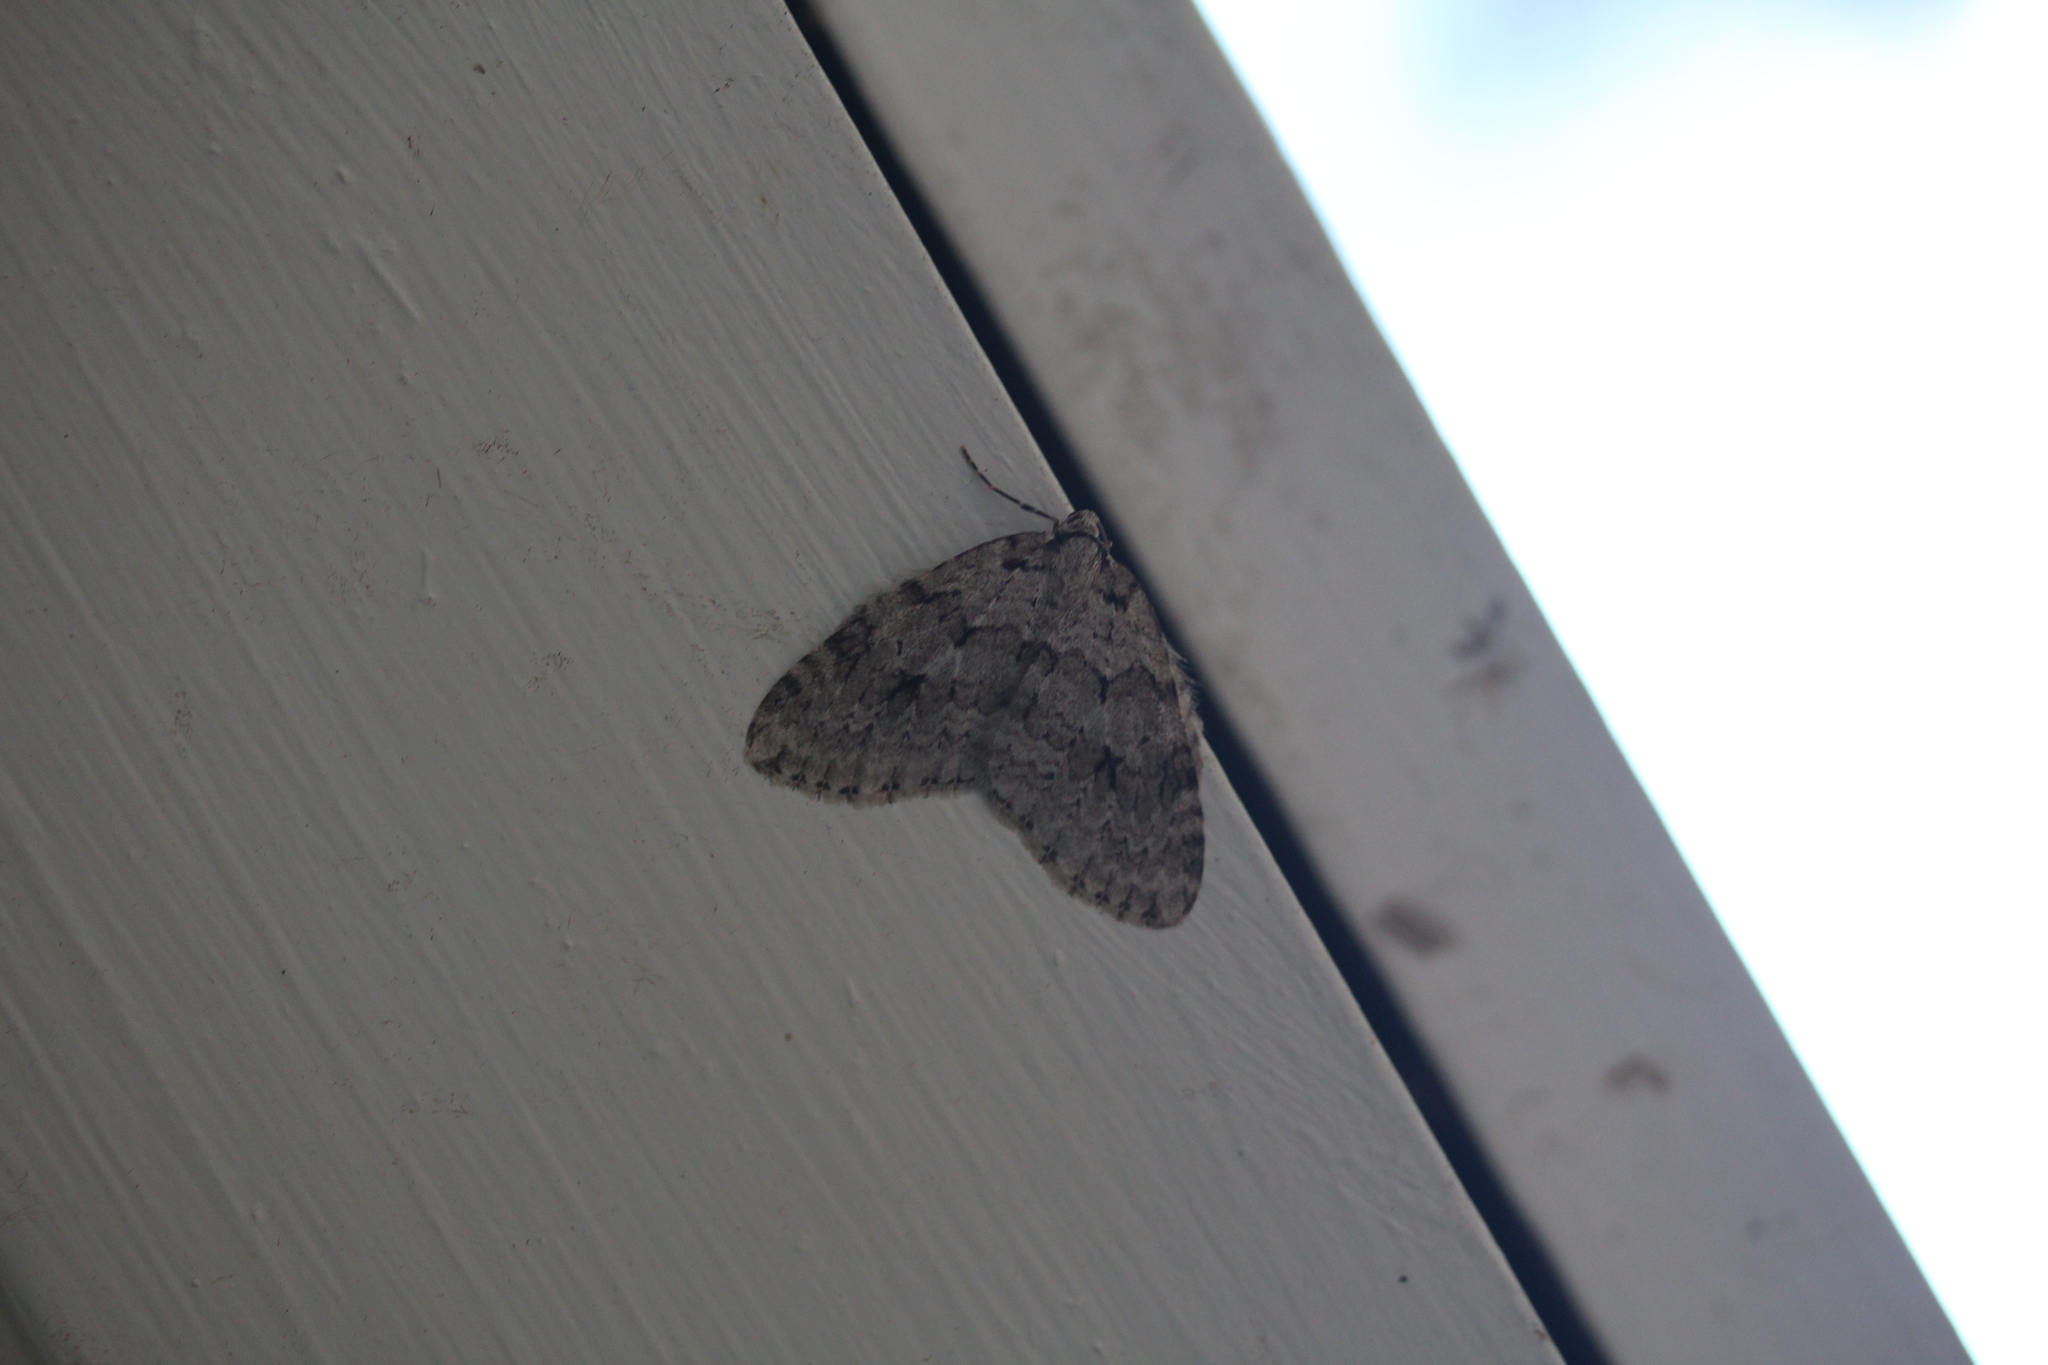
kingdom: Animalia
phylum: Arthropoda
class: Insecta
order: Lepidoptera
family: Geometridae
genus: Epirrita
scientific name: Epirrita autumnata
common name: Autumnal moth
